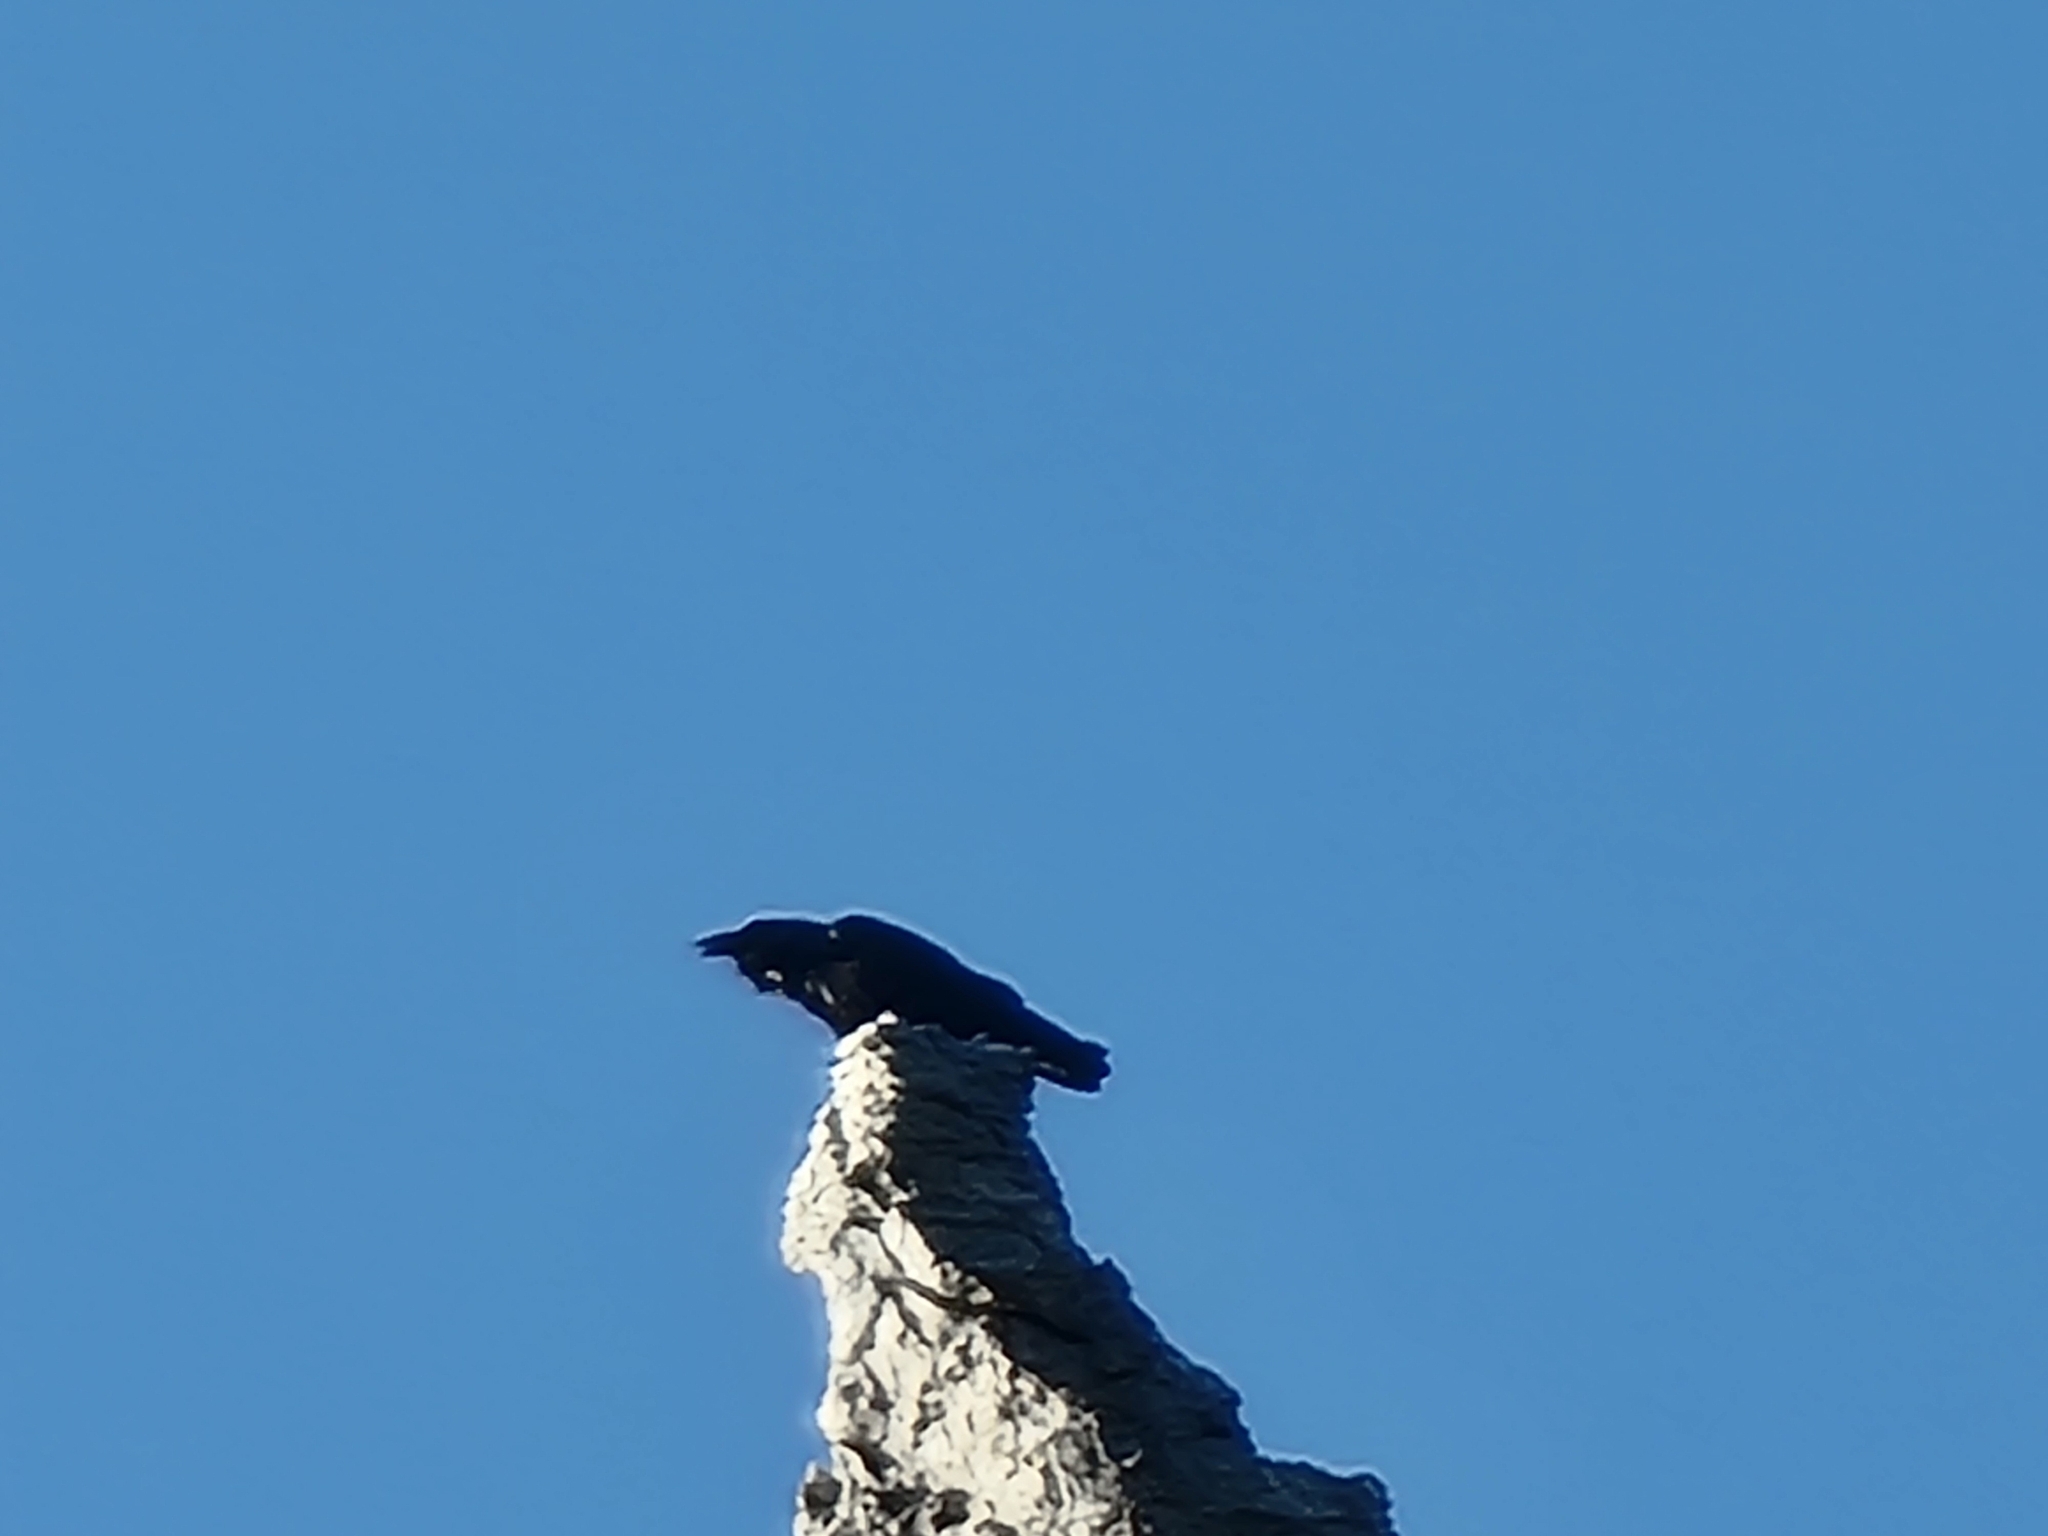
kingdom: Animalia
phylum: Chordata
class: Aves
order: Passeriformes
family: Corvidae
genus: Corvus
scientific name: Corvus corax
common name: Common raven
